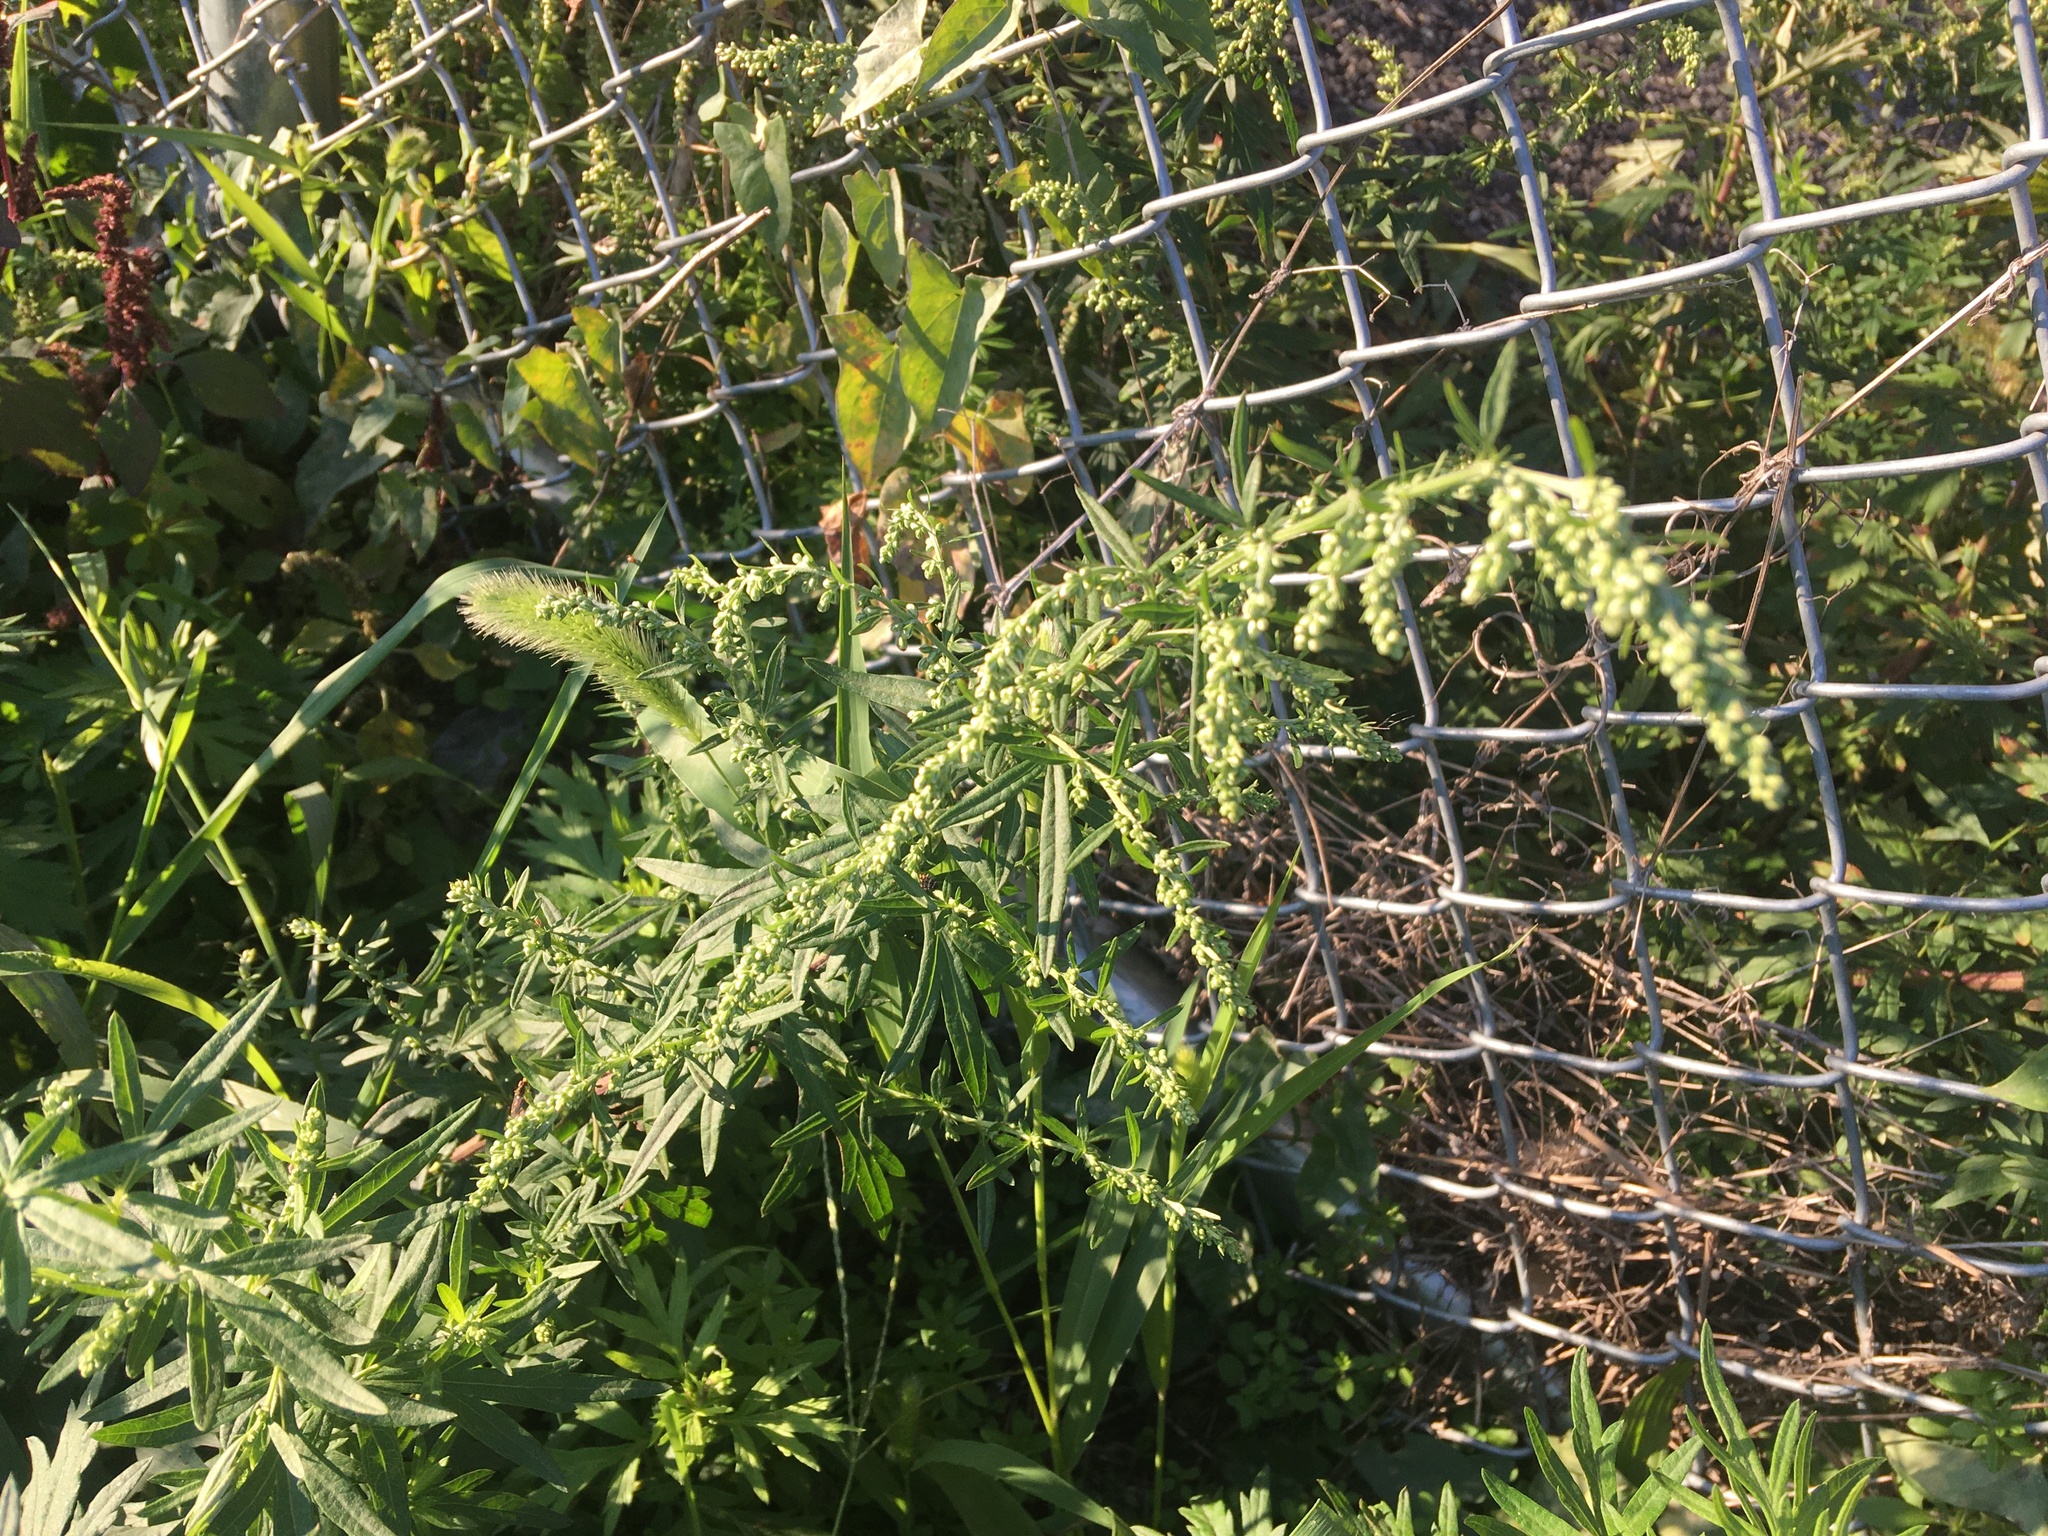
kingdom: Plantae
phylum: Tracheophyta
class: Magnoliopsida
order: Asterales
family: Asteraceae
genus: Artemisia
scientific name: Artemisia vulgaris
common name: Mugwort
